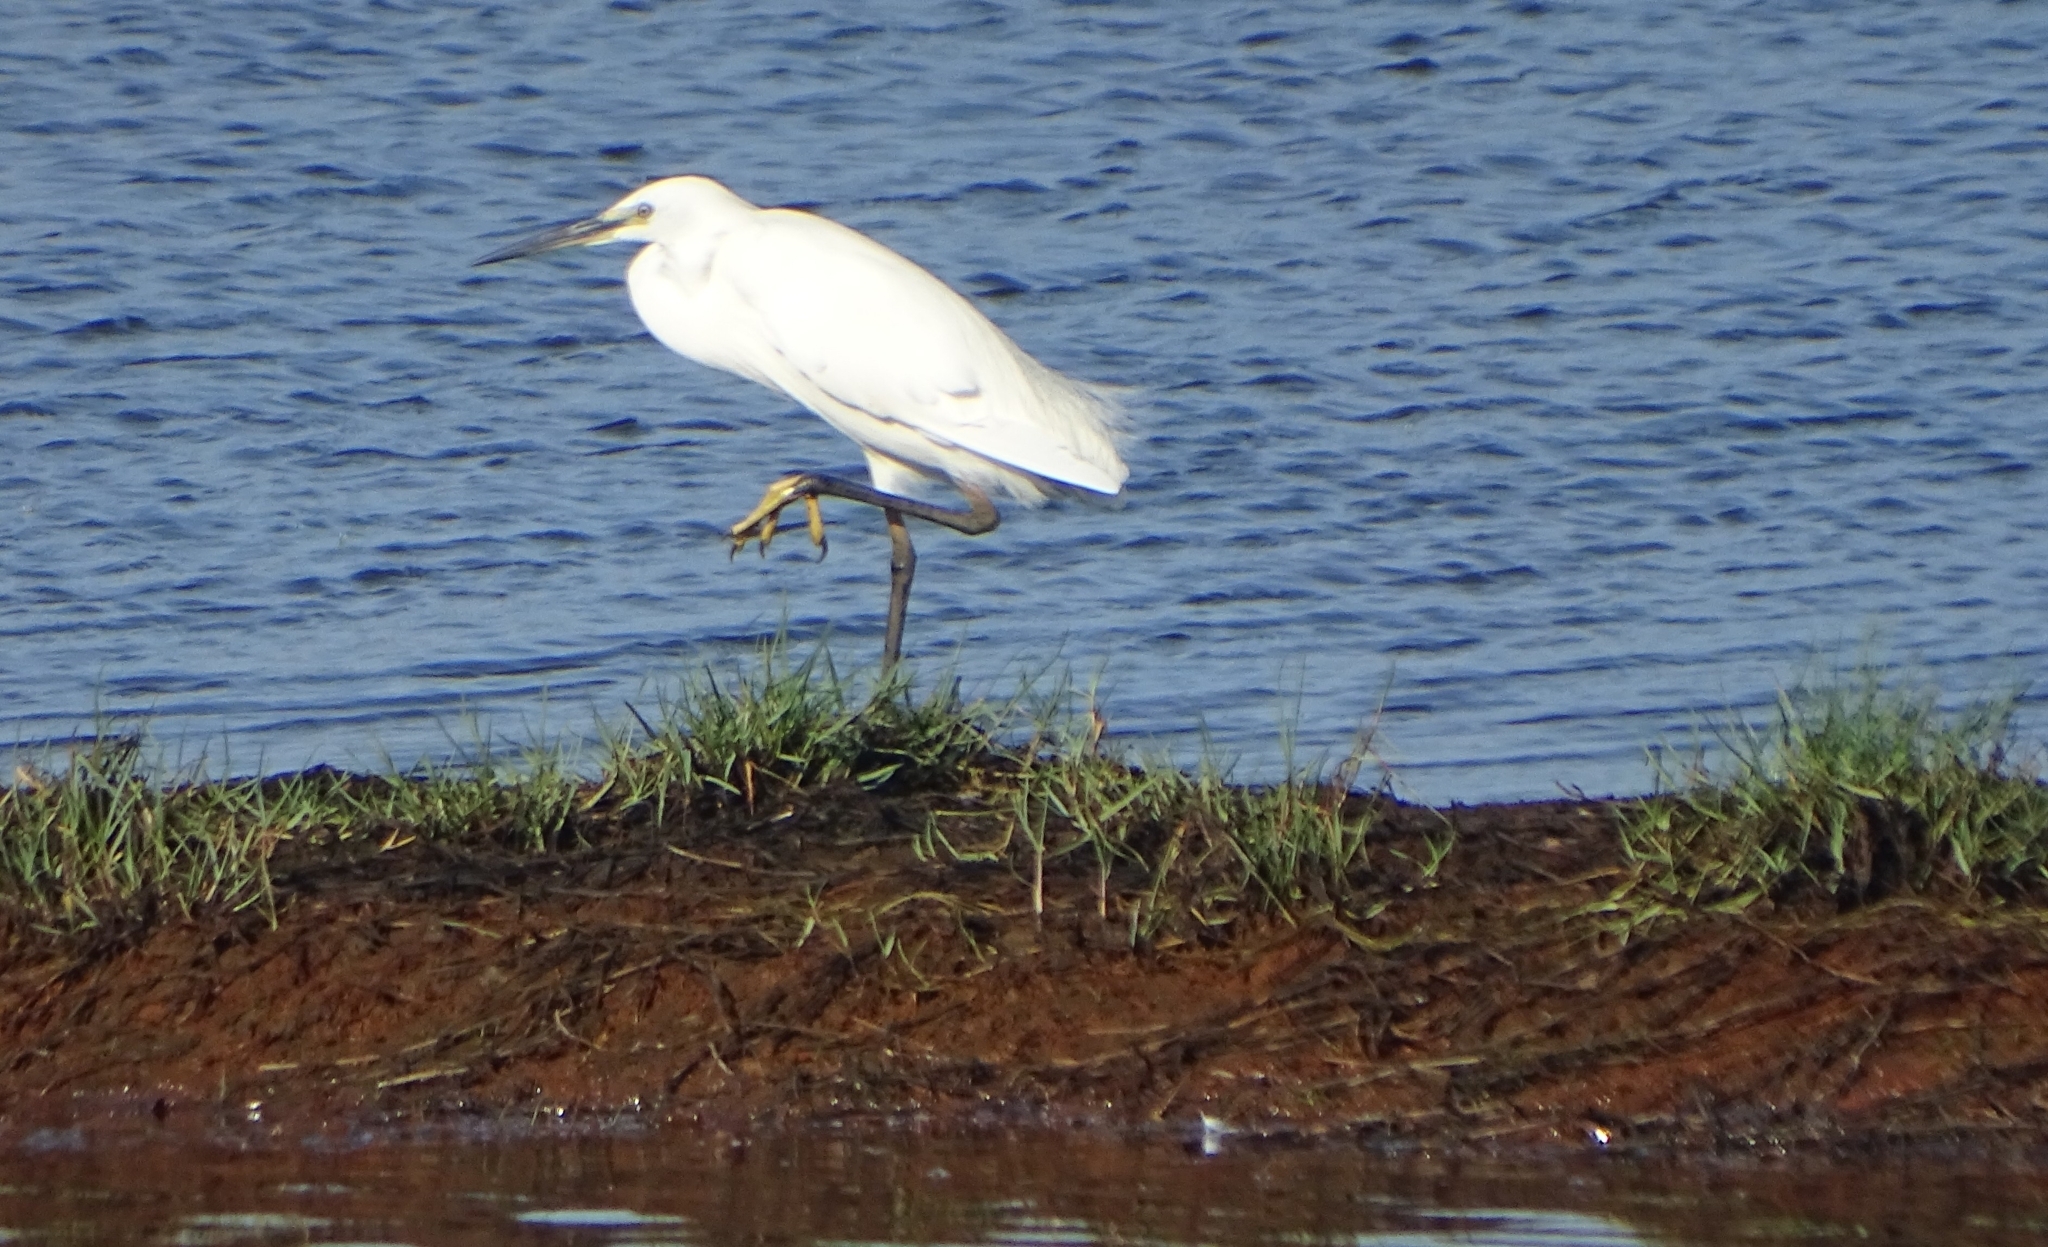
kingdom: Animalia
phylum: Chordata
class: Aves
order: Pelecaniformes
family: Ardeidae
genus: Egretta
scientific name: Egretta garzetta
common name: Little egret
